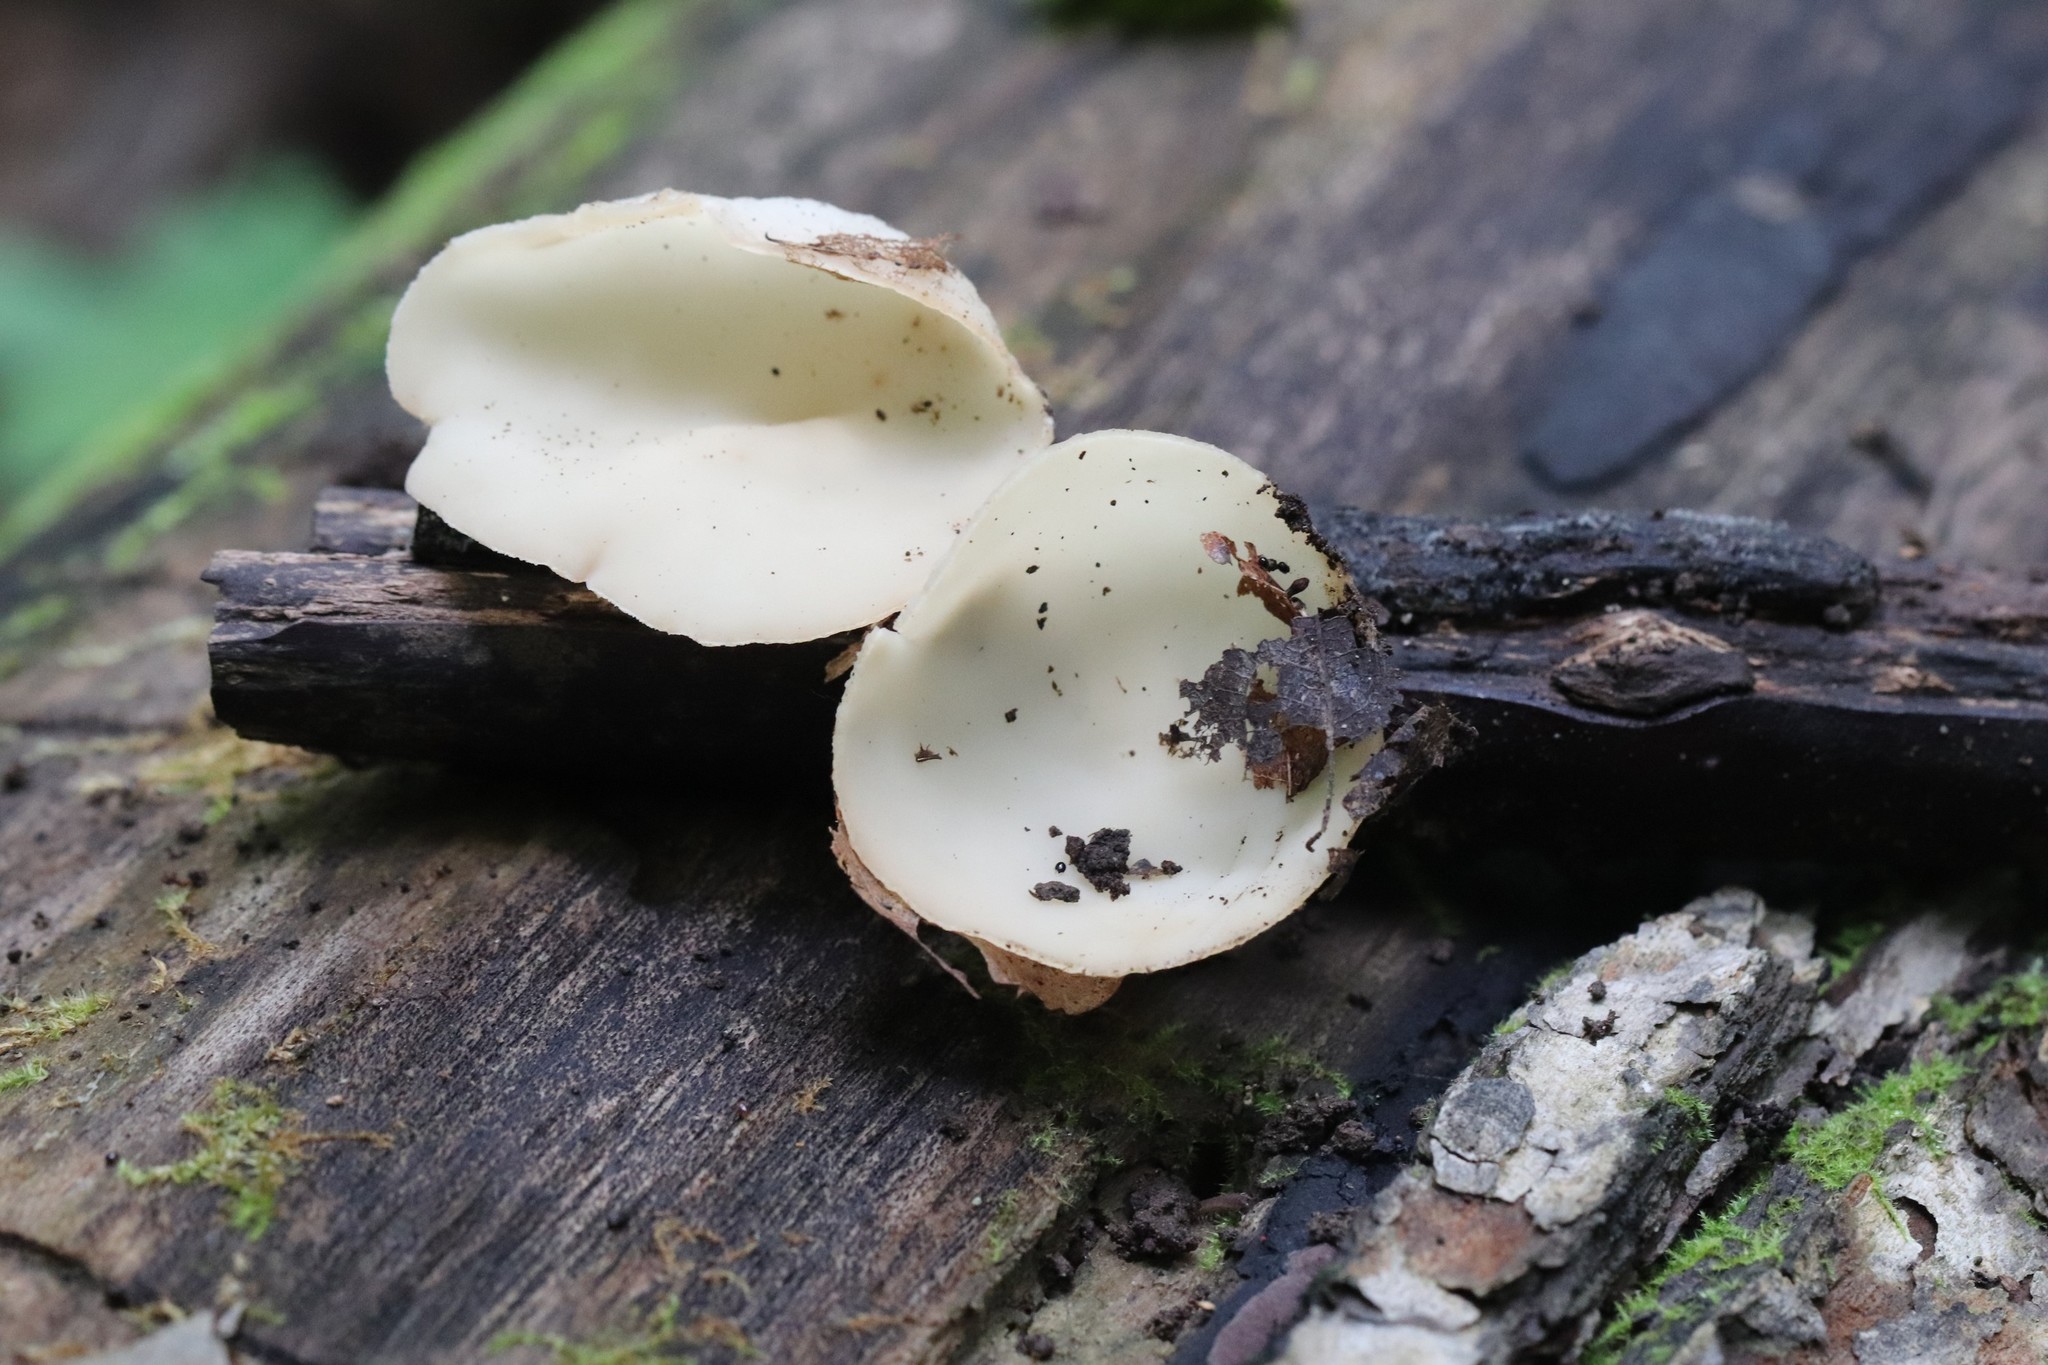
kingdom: Fungi
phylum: Ascomycota
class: Pezizomycetes
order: Pezizales
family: Sarcoscyphaceae
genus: Sarcoscypha
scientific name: Sarcoscypha vassiljevae
